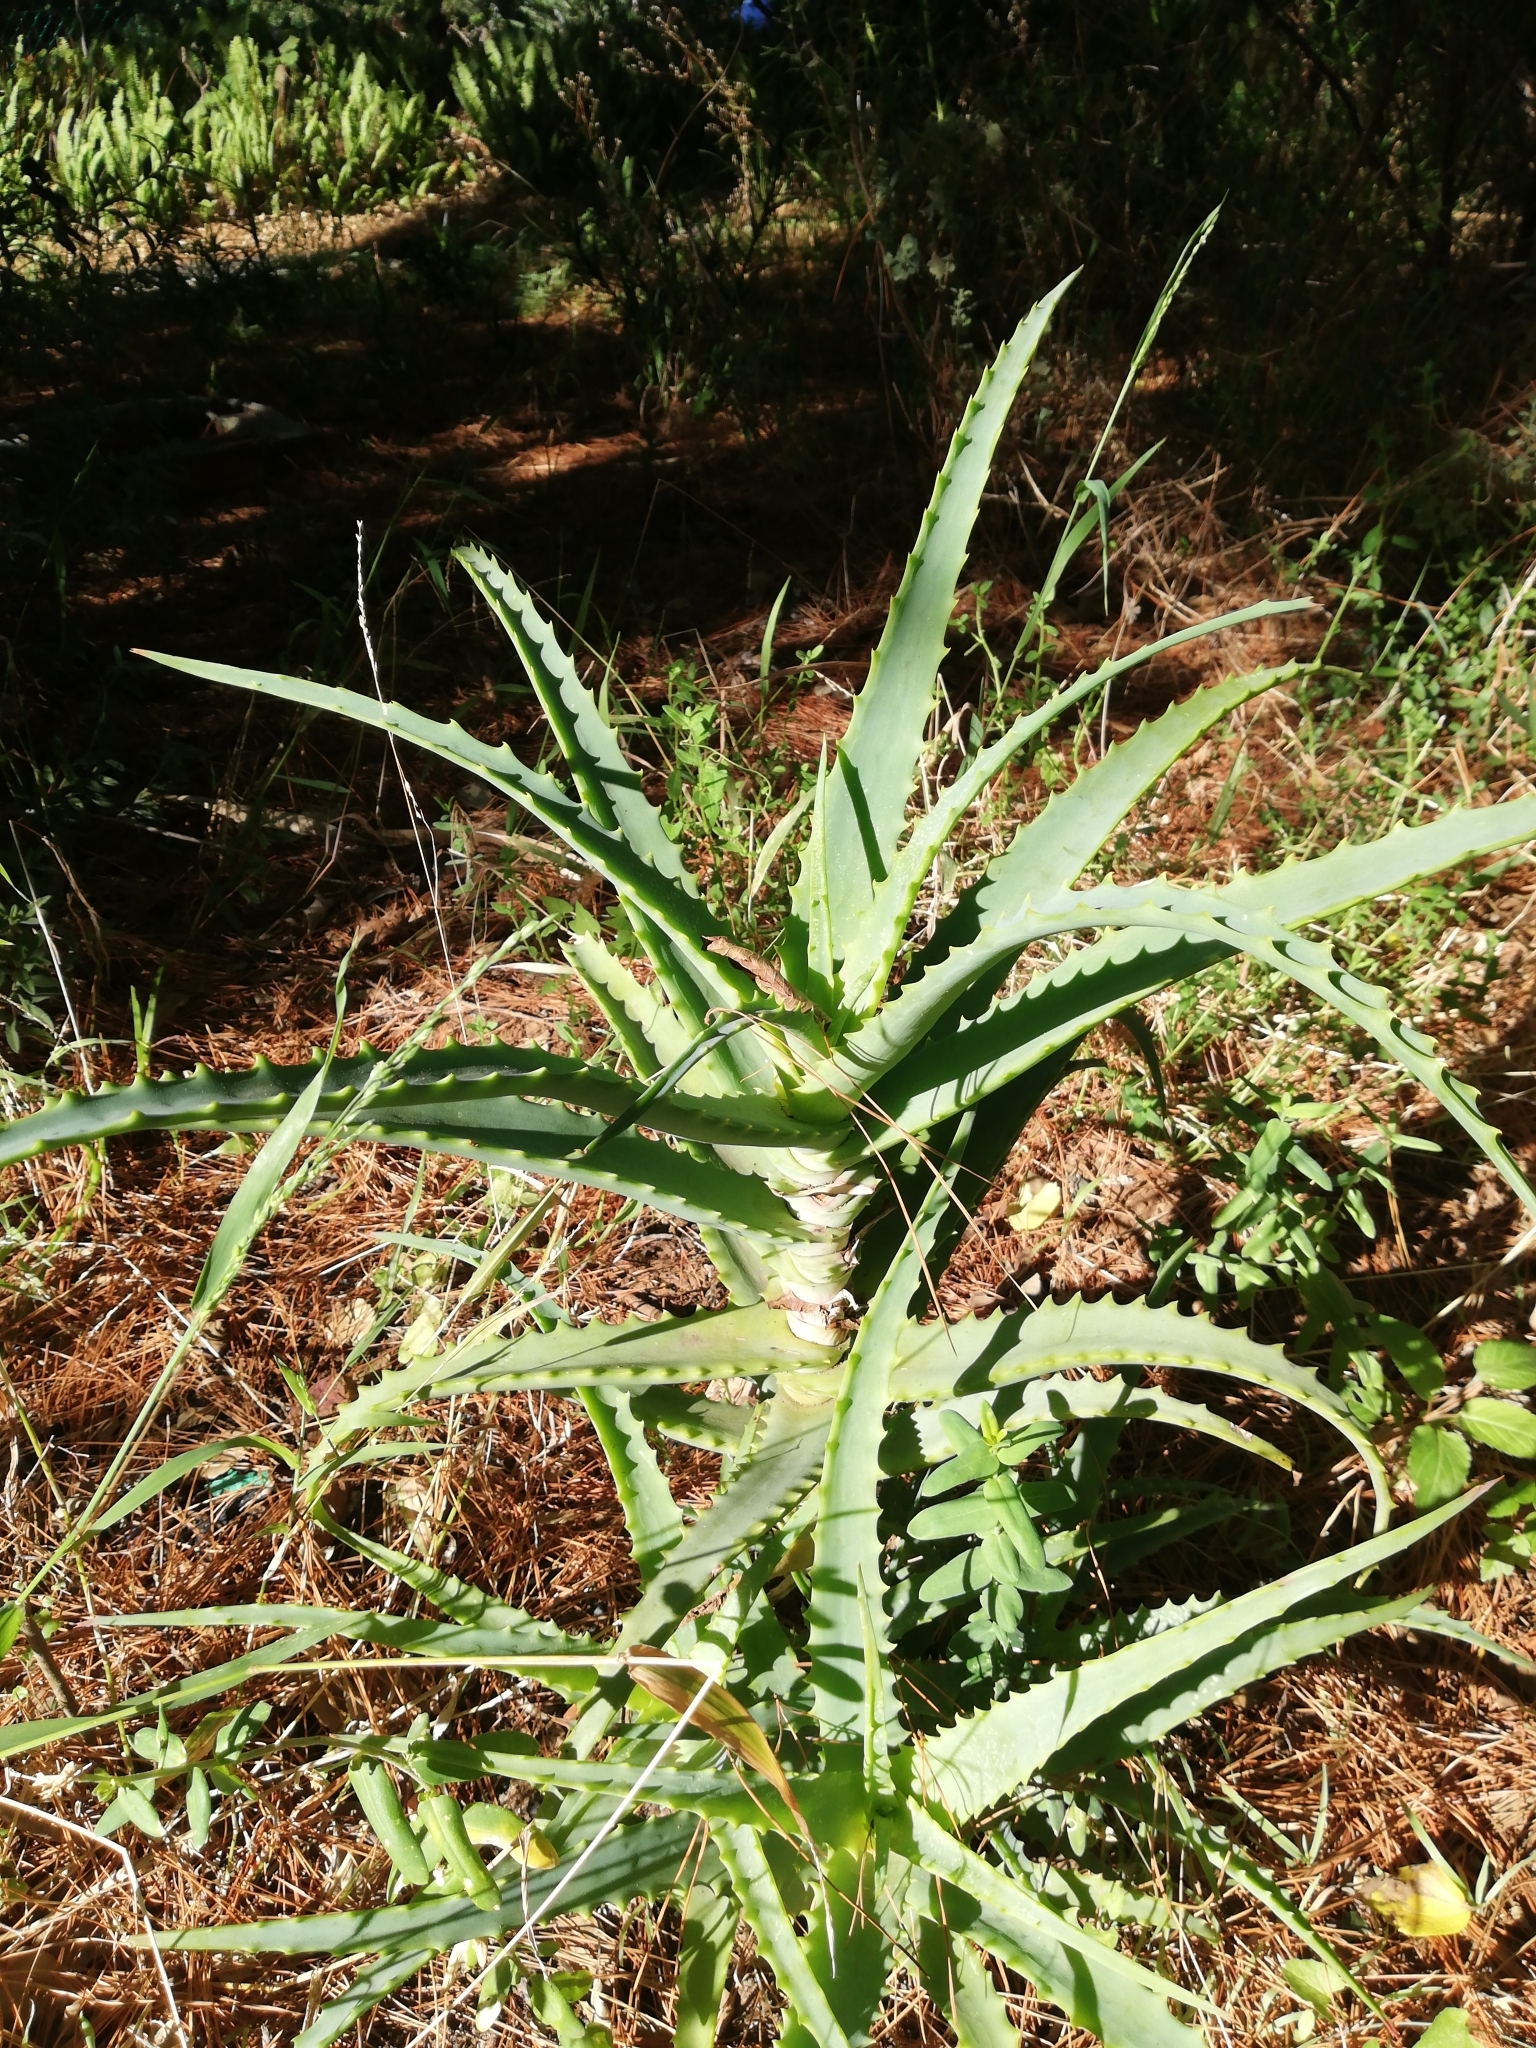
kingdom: Plantae
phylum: Tracheophyta
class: Liliopsida
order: Asparagales
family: Asphodelaceae
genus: Aloe
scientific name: Aloe arborescens
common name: Candelabra aloe
